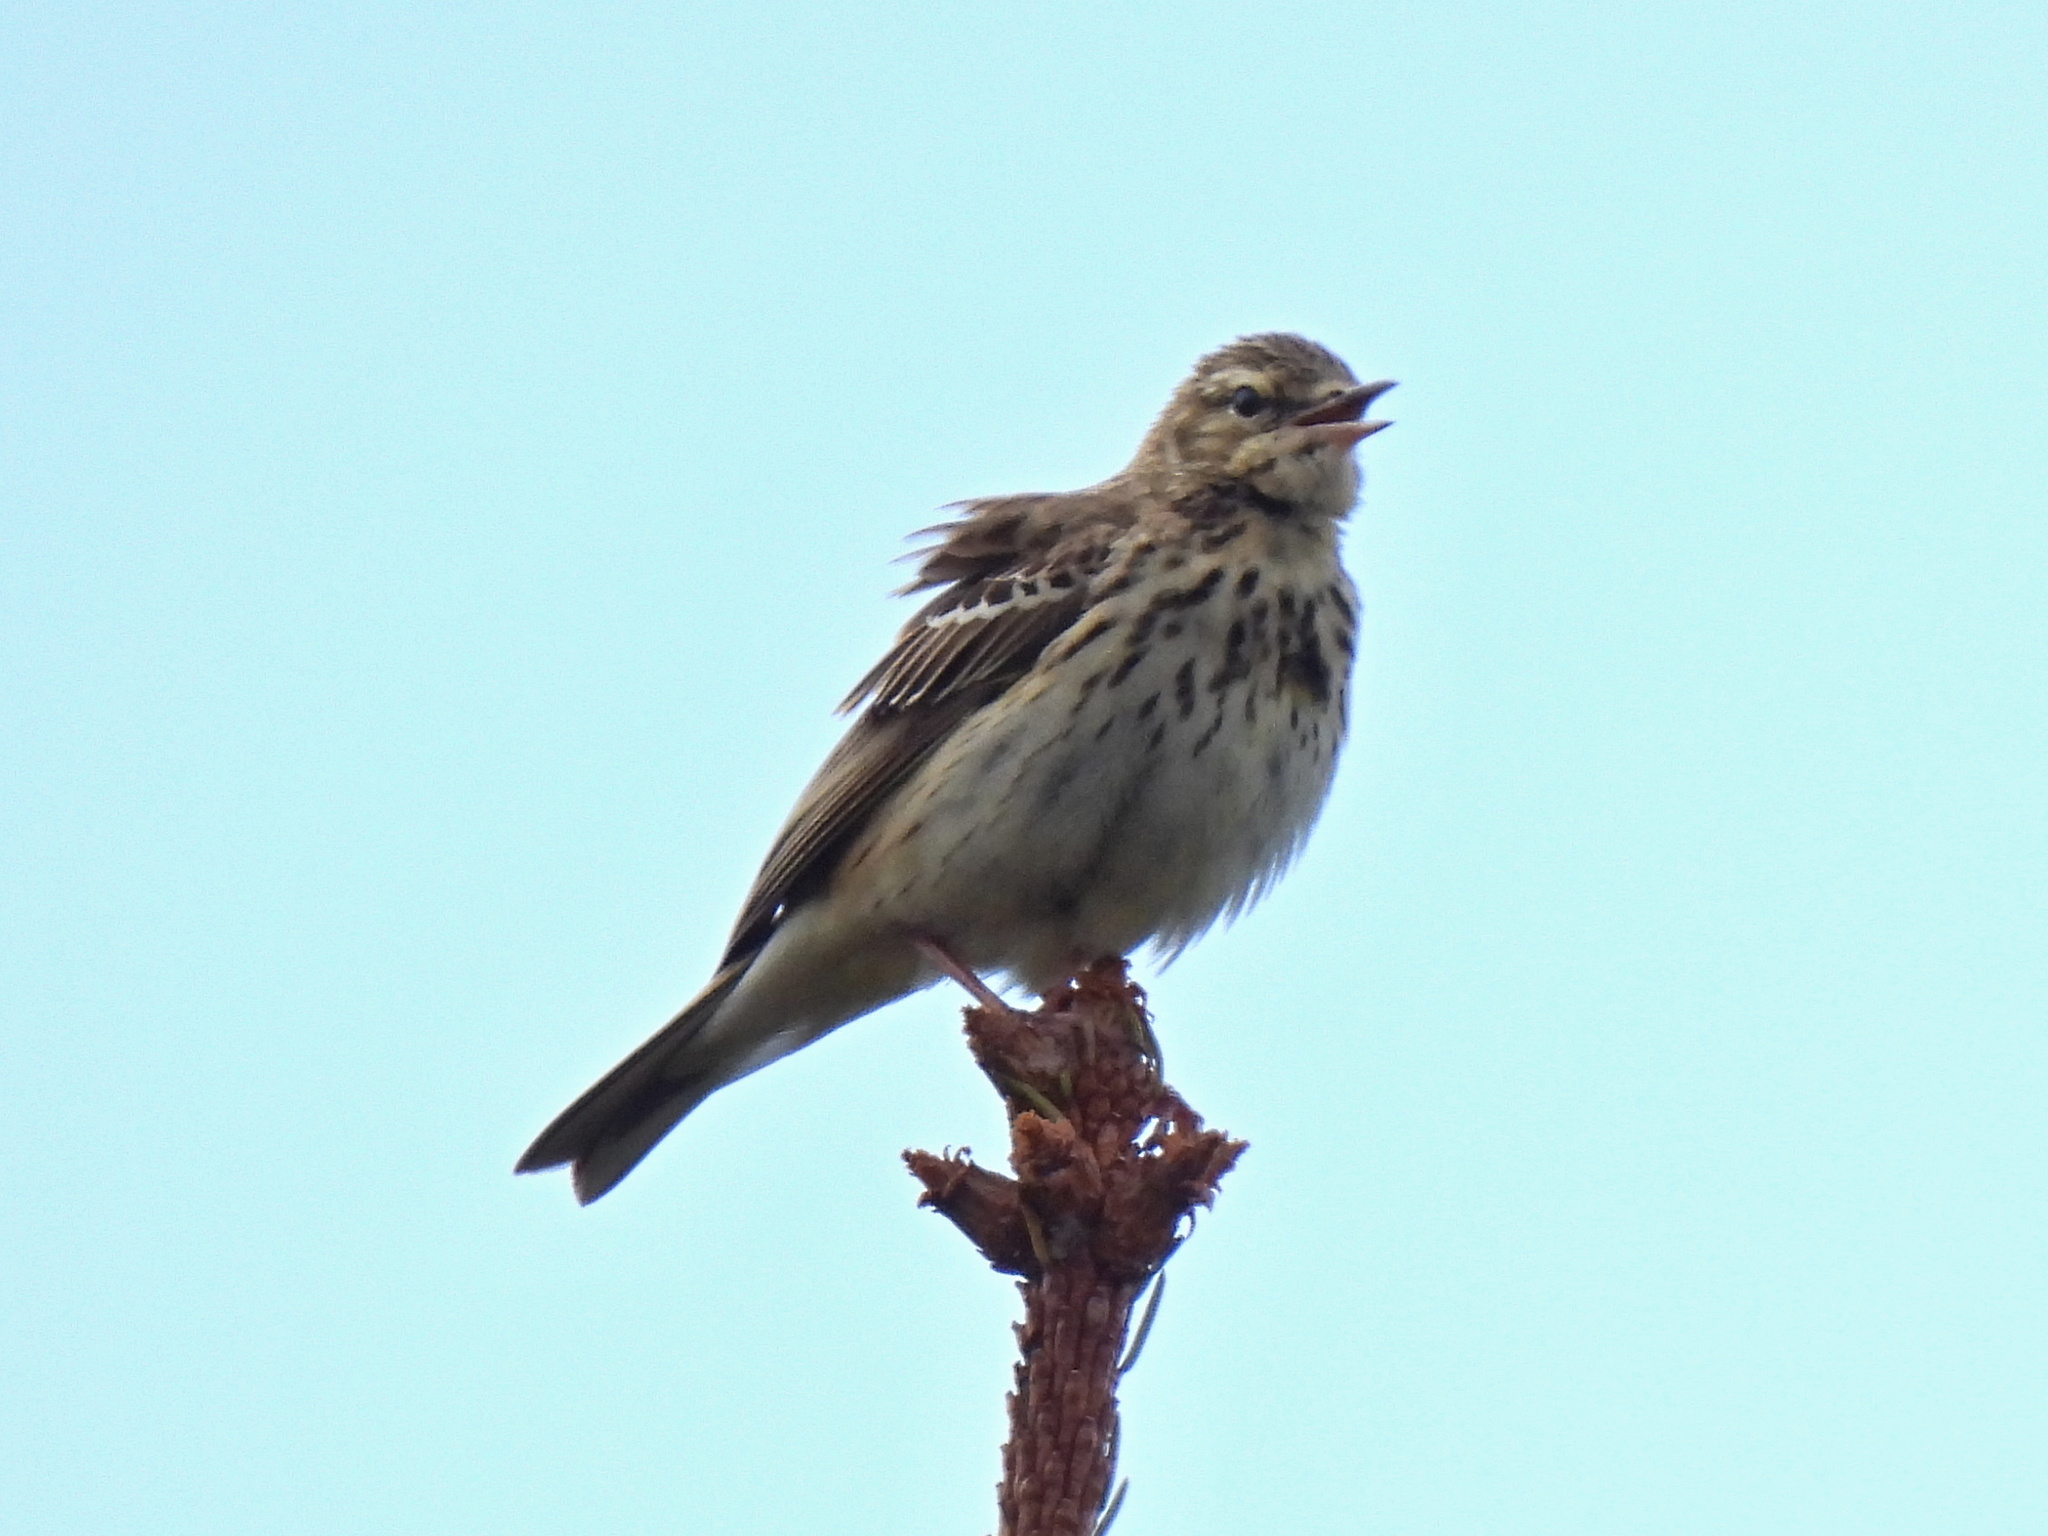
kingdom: Animalia
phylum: Chordata
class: Aves
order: Passeriformes
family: Motacillidae
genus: Anthus
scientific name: Anthus trivialis
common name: Tree pipit
